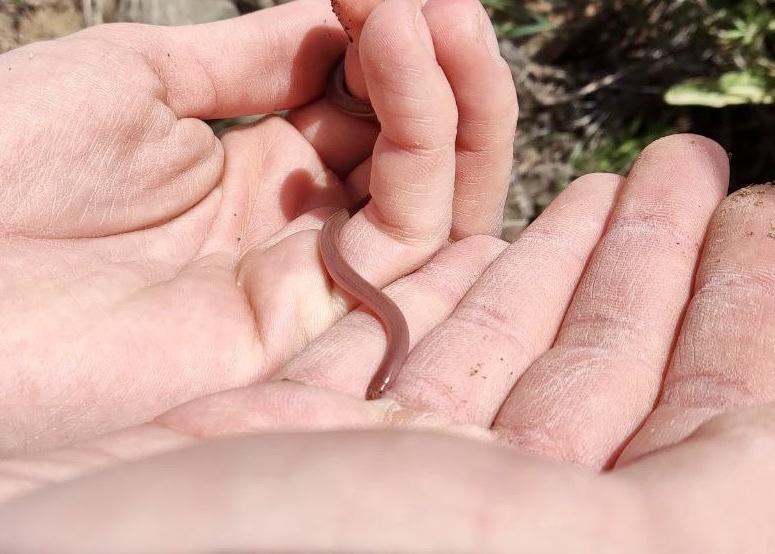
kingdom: Animalia
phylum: Chordata
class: Squamata
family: Typhlopidae
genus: Xerotyphlops
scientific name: Xerotyphlops vermicularis
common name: Eurasian blind snake
